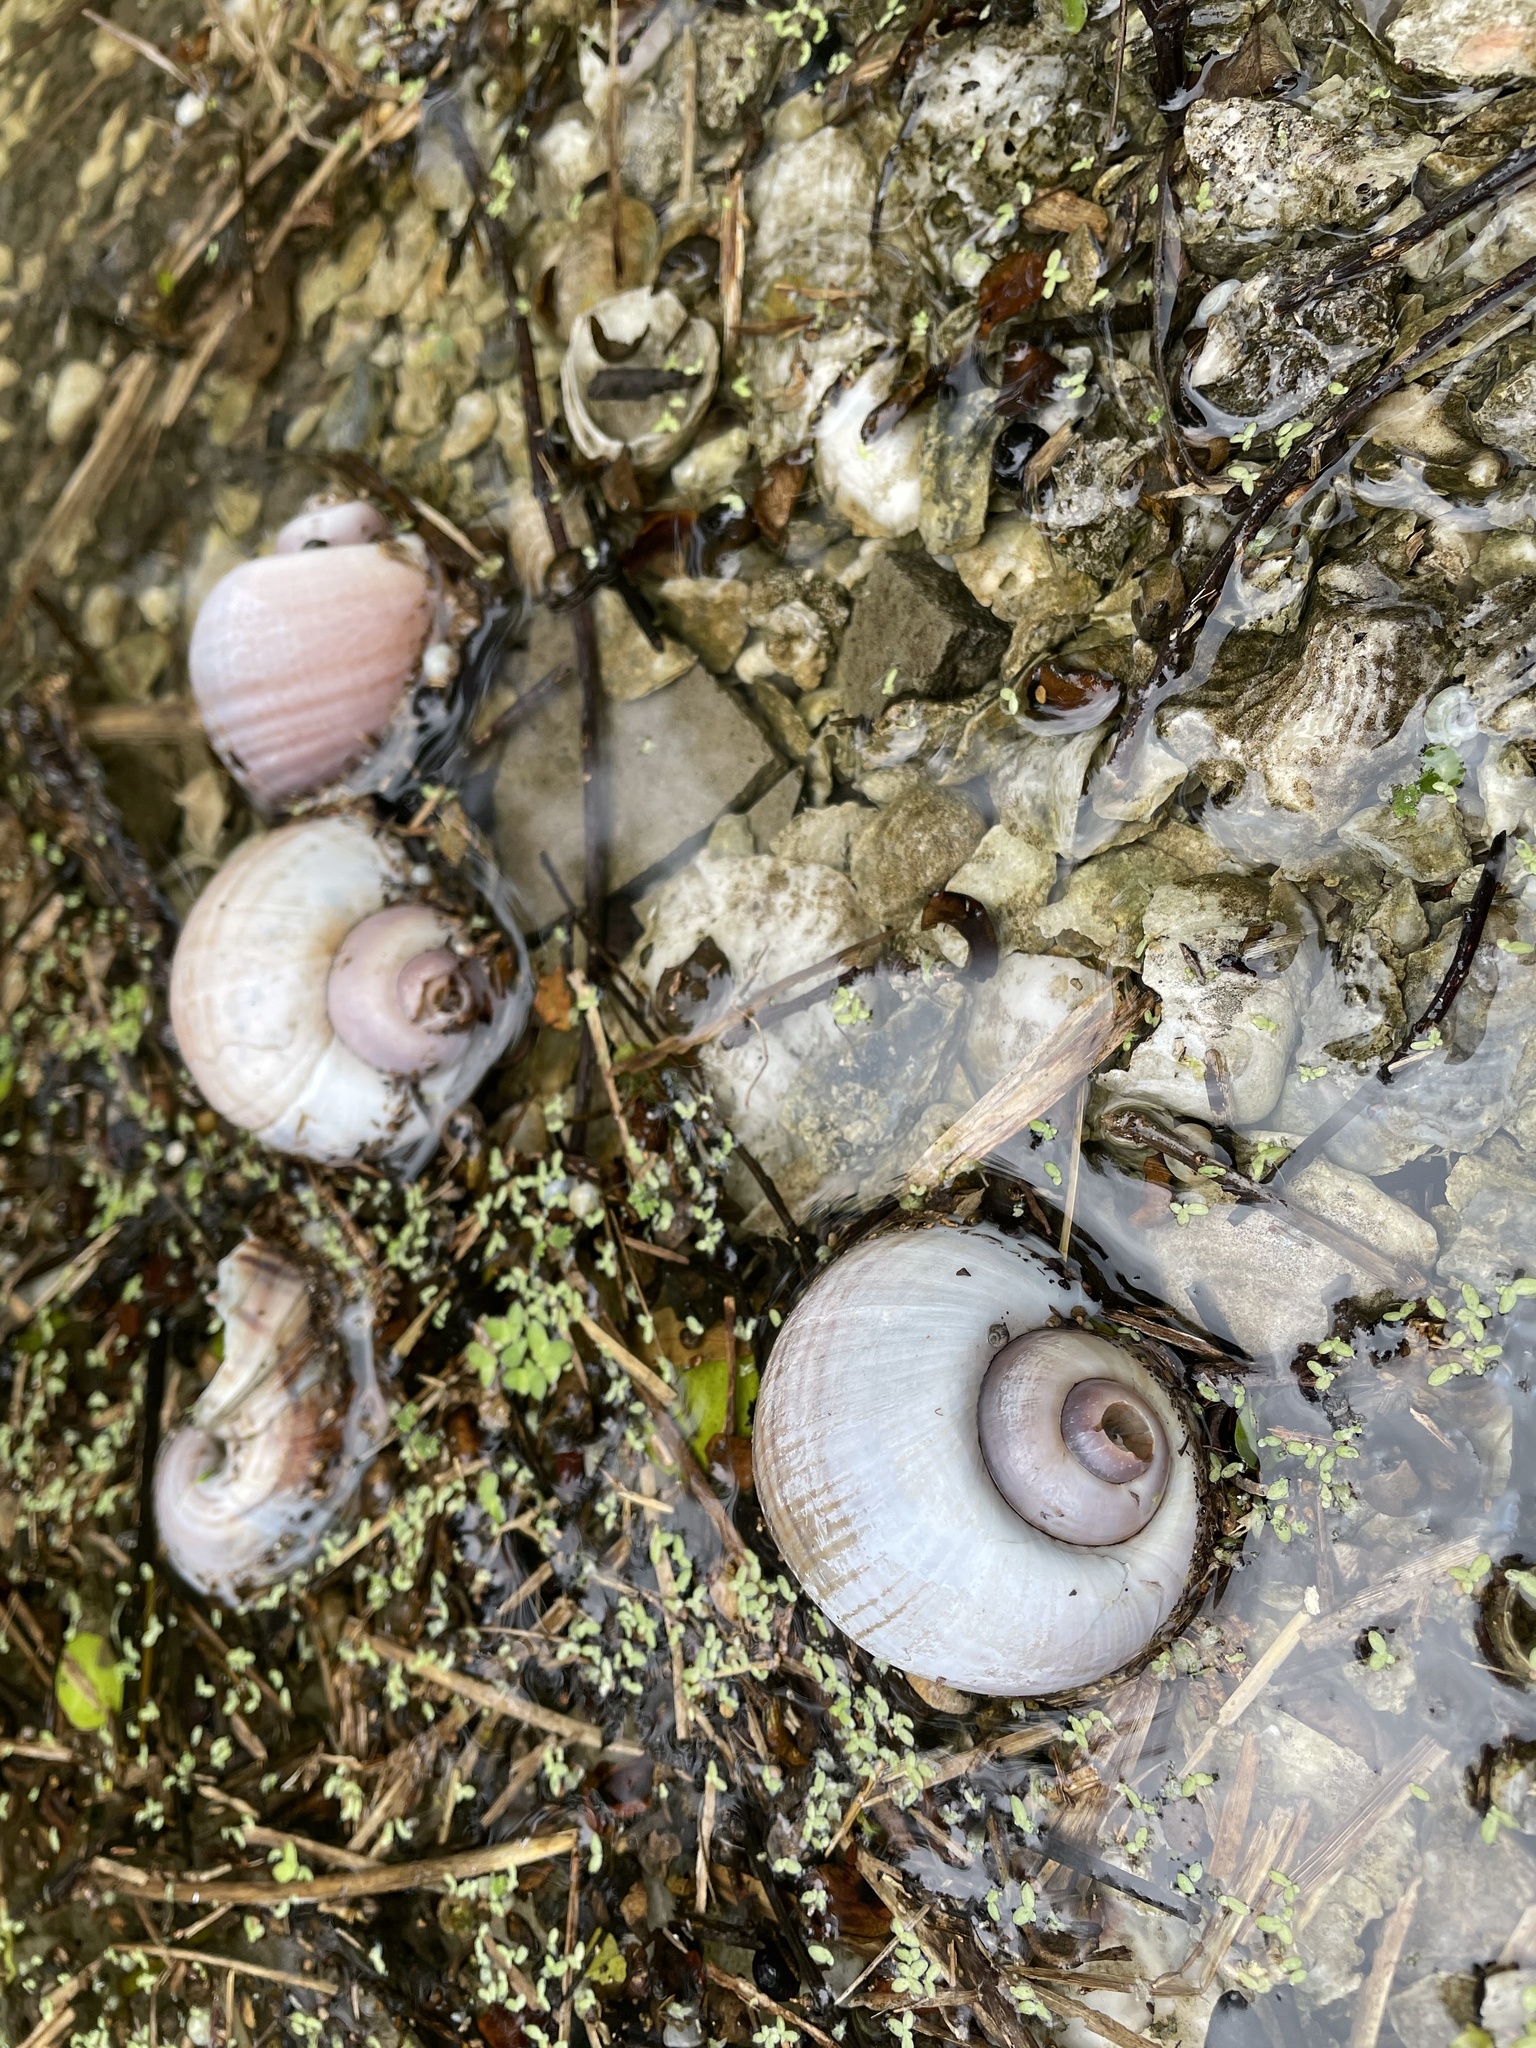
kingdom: Animalia
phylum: Mollusca
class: Gastropoda
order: Architaenioglossa
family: Ampullariidae
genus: Pomacea
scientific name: Pomacea maculata
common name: Giant applesnail
